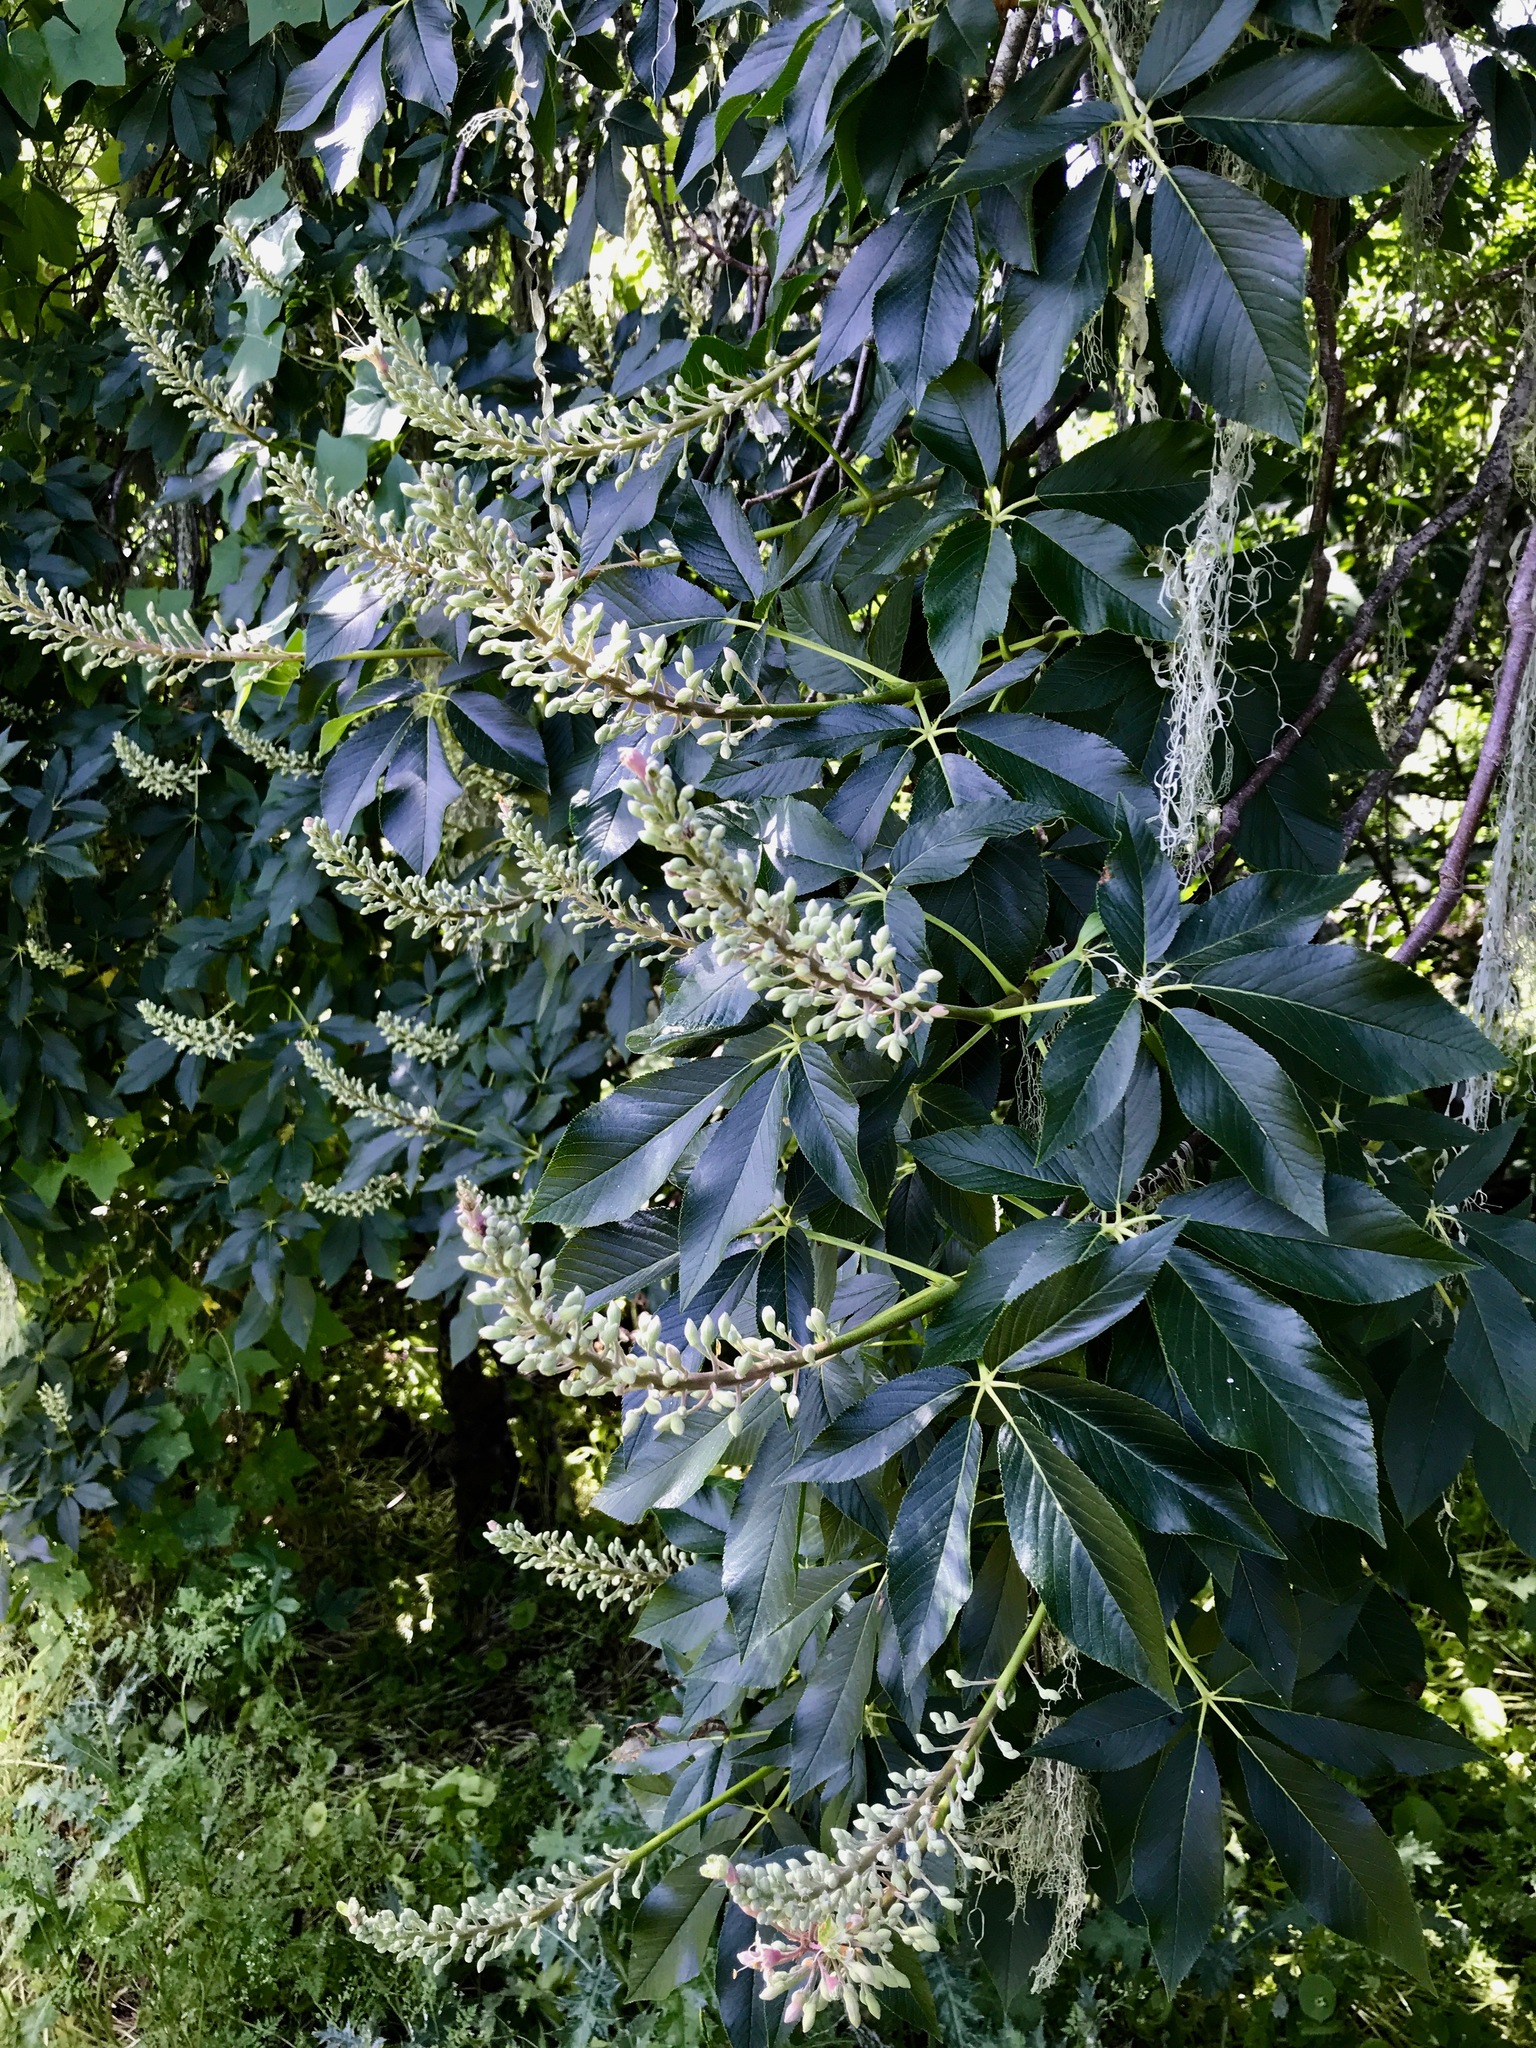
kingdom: Plantae
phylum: Tracheophyta
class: Magnoliopsida
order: Sapindales
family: Sapindaceae
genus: Aesculus
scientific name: Aesculus californica
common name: California buckeye
